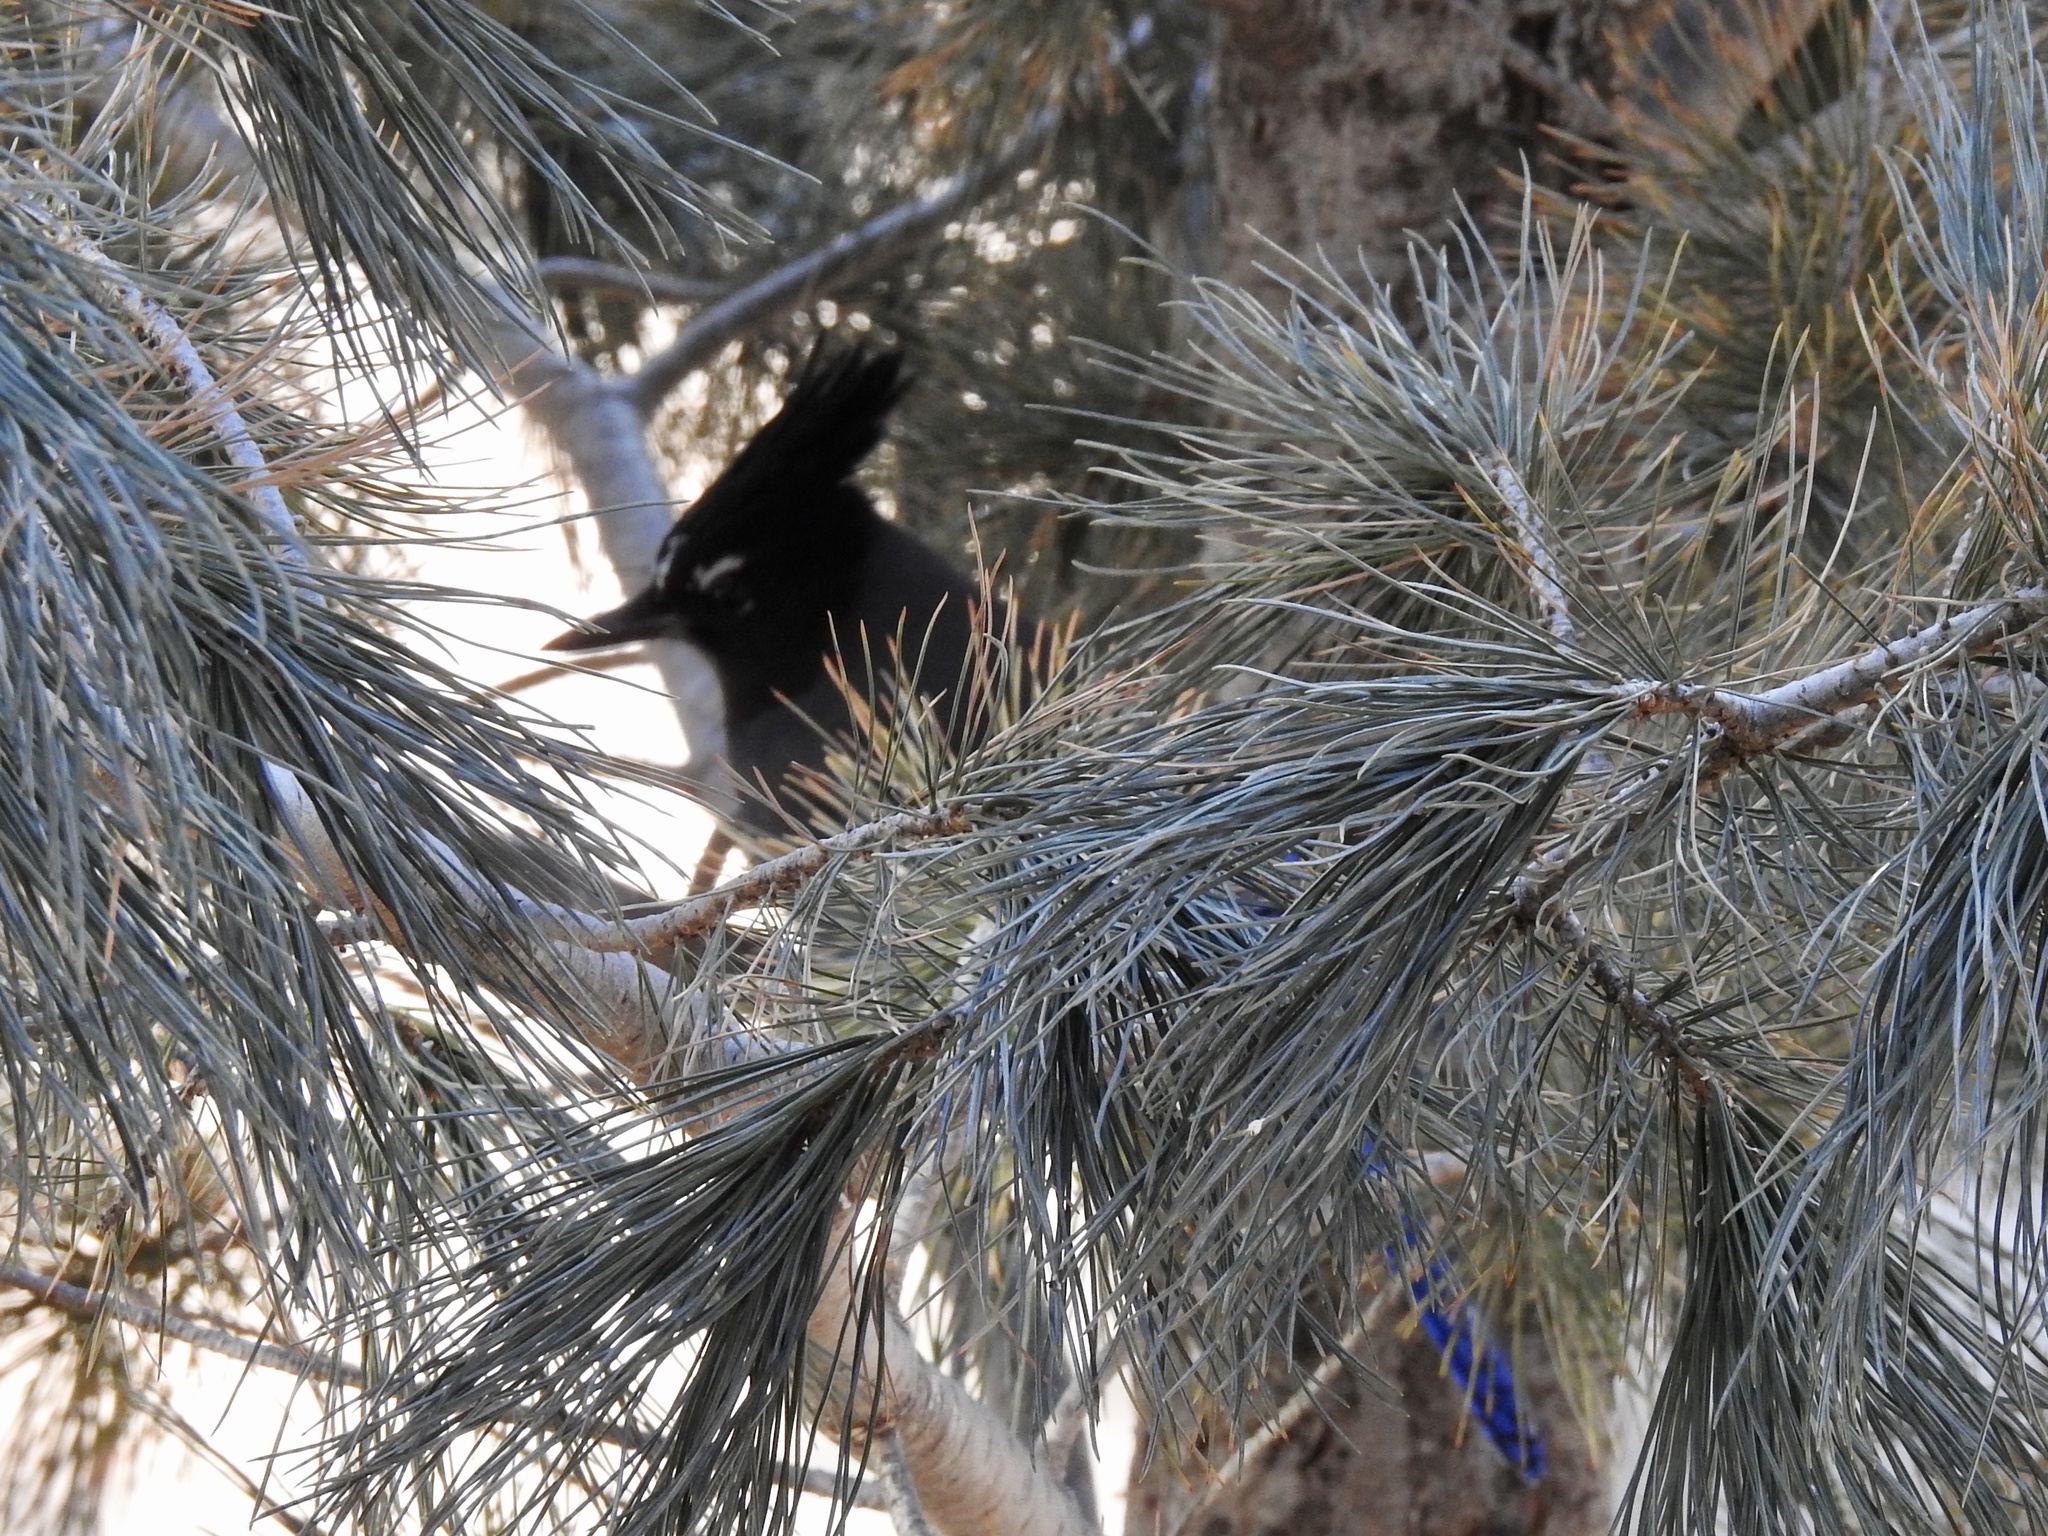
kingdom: Animalia
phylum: Chordata
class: Aves
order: Passeriformes
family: Corvidae
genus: Cyanocitta
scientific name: Cyanocitta stelleri
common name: Steller's jay
